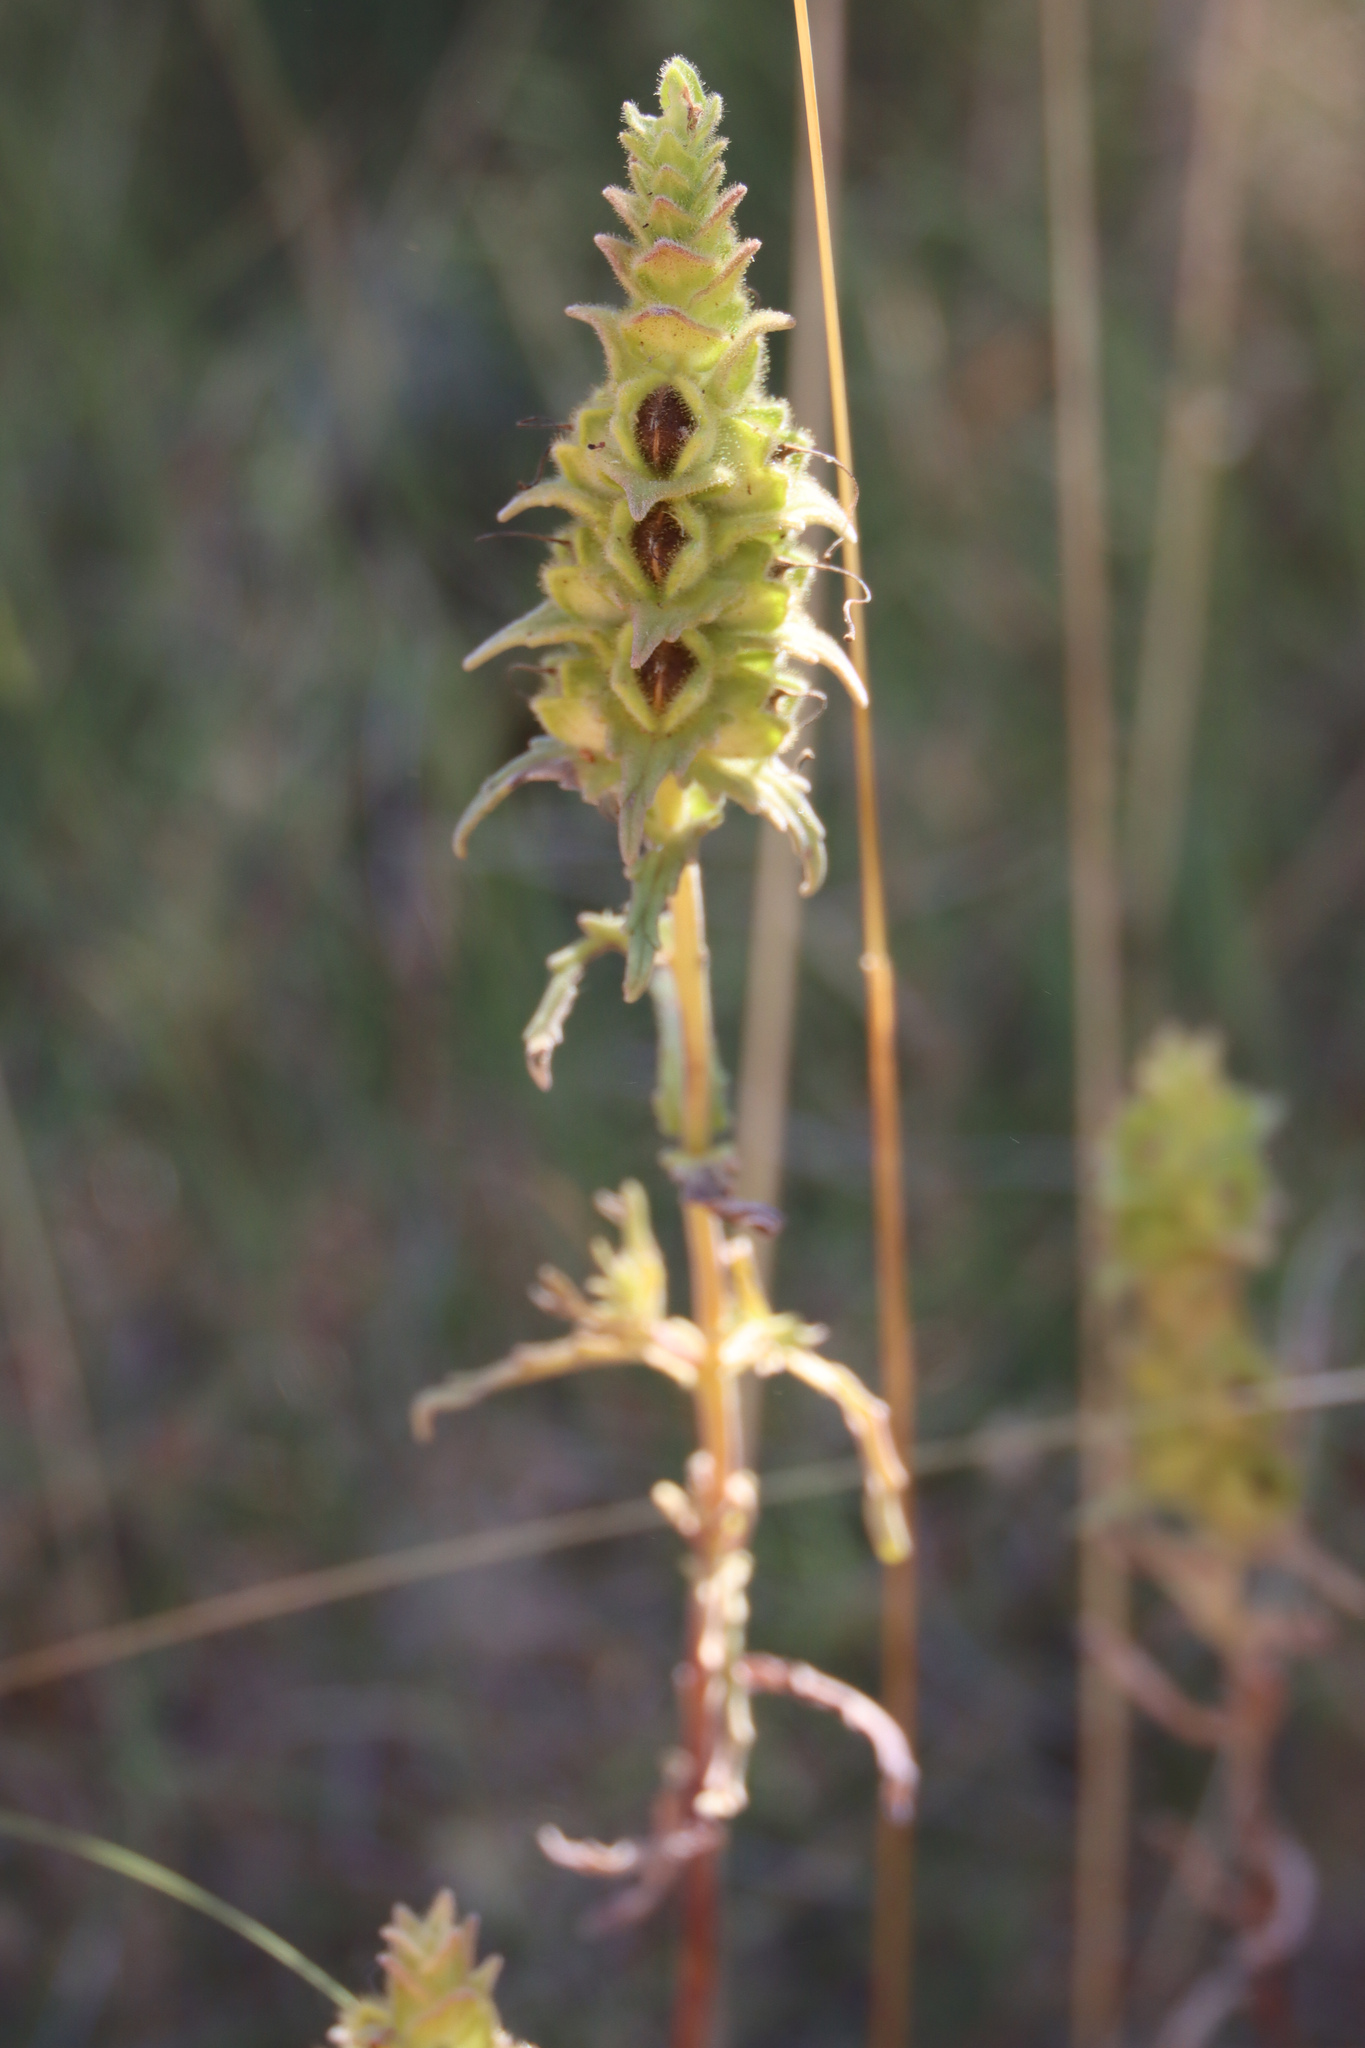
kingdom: Plantae
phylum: Tracheophyta
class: Magnoliopsida
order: Lamiales
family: Orobanchaceae
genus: Bellardia
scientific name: Bellardia trixago
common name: Mediterranean lineseed
